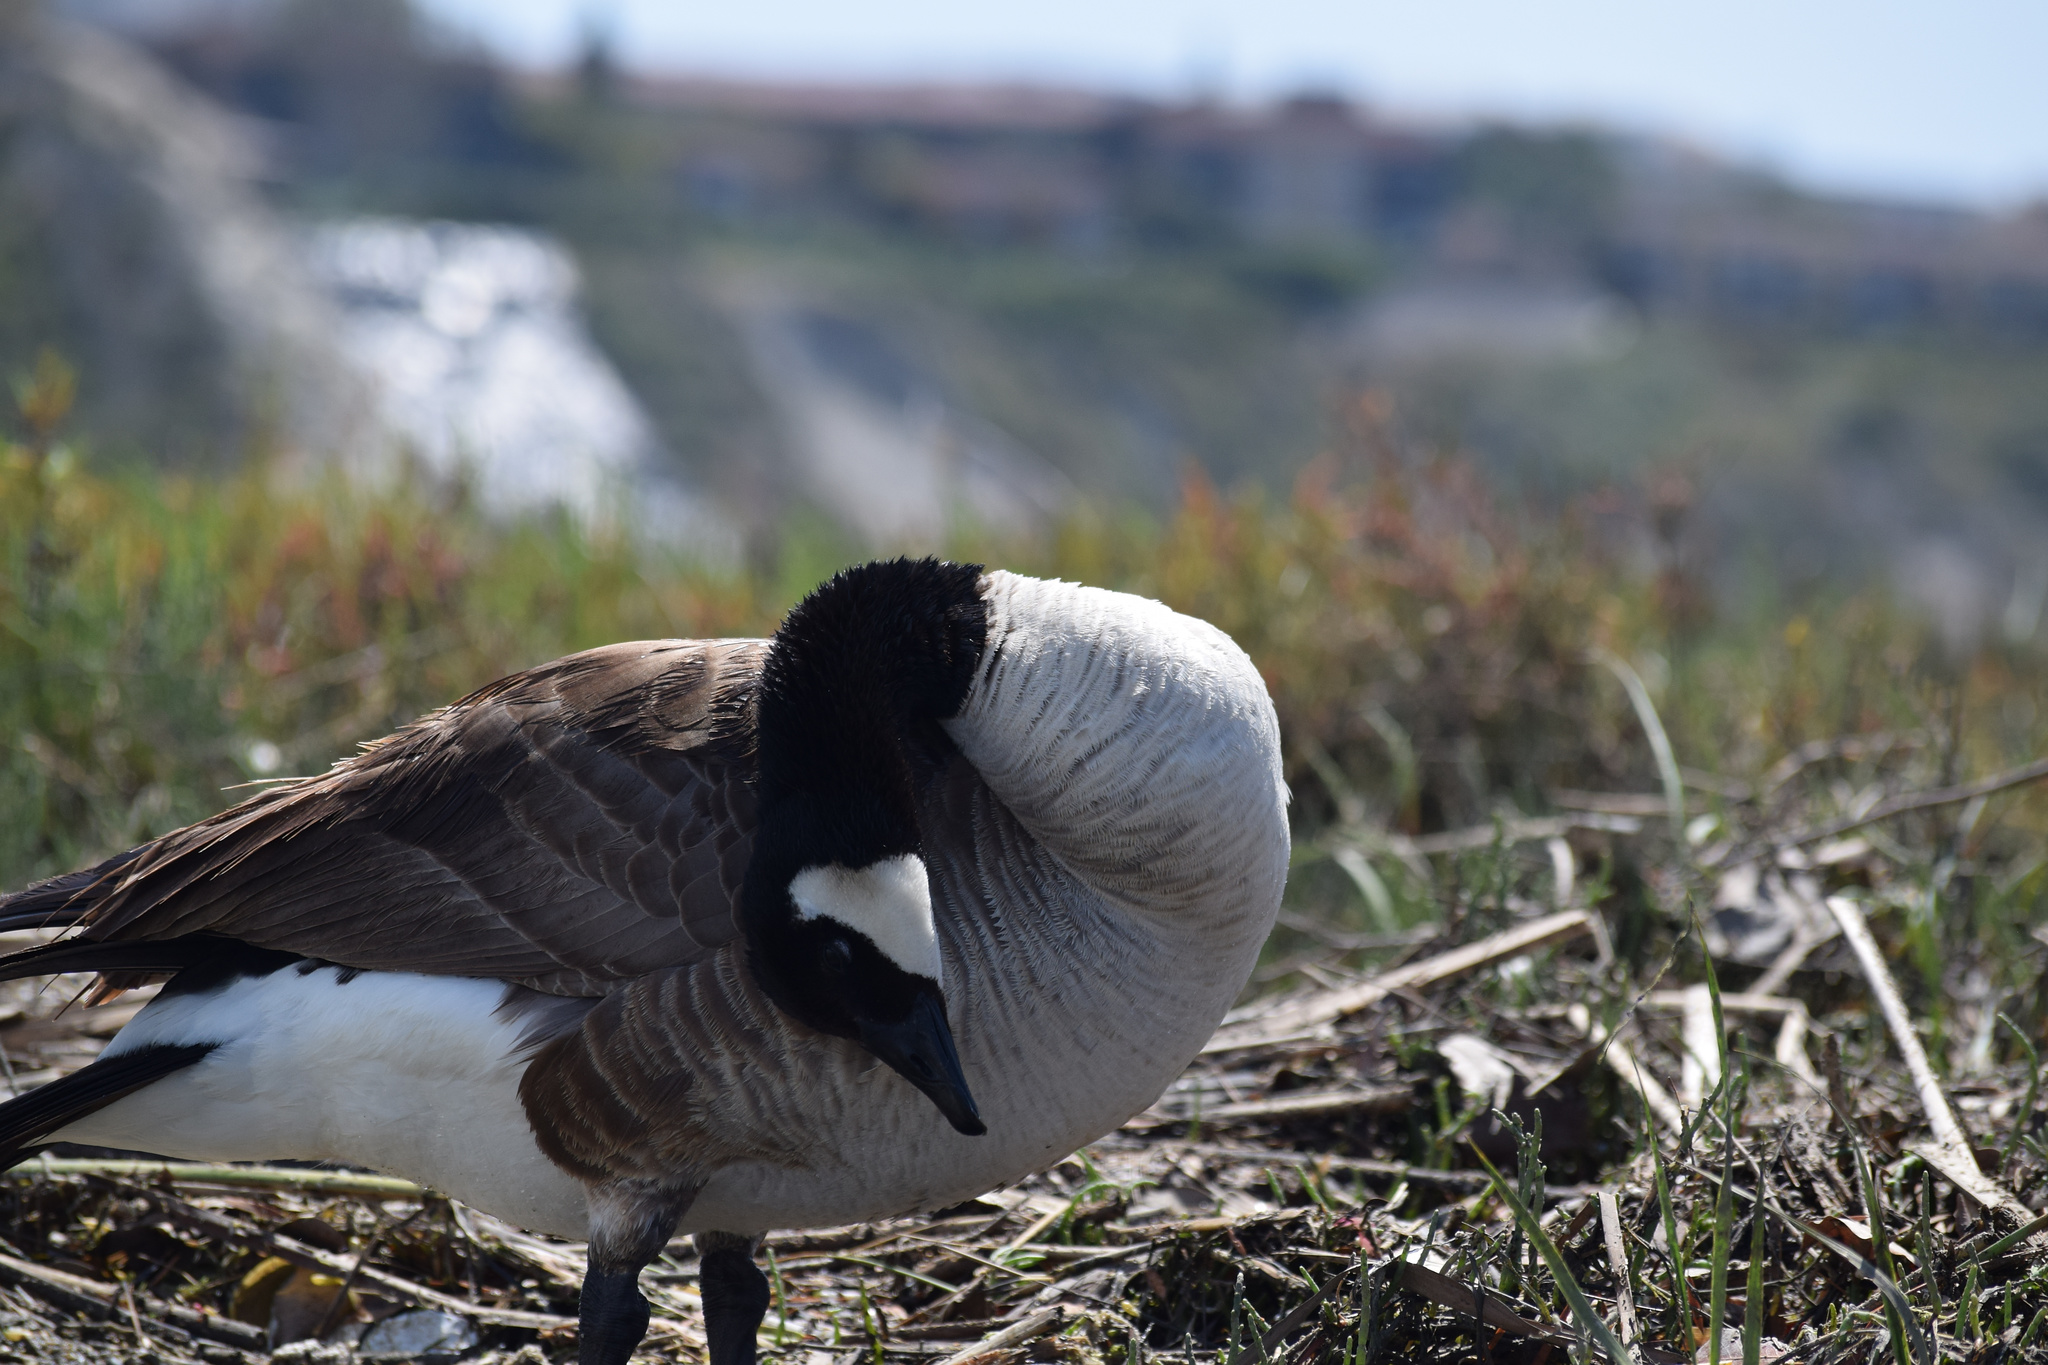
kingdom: Animalia
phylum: Chordata
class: Aves
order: Anseriformes
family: Anatidae
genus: Branta
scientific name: Branta canadensis
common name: Canada goose
